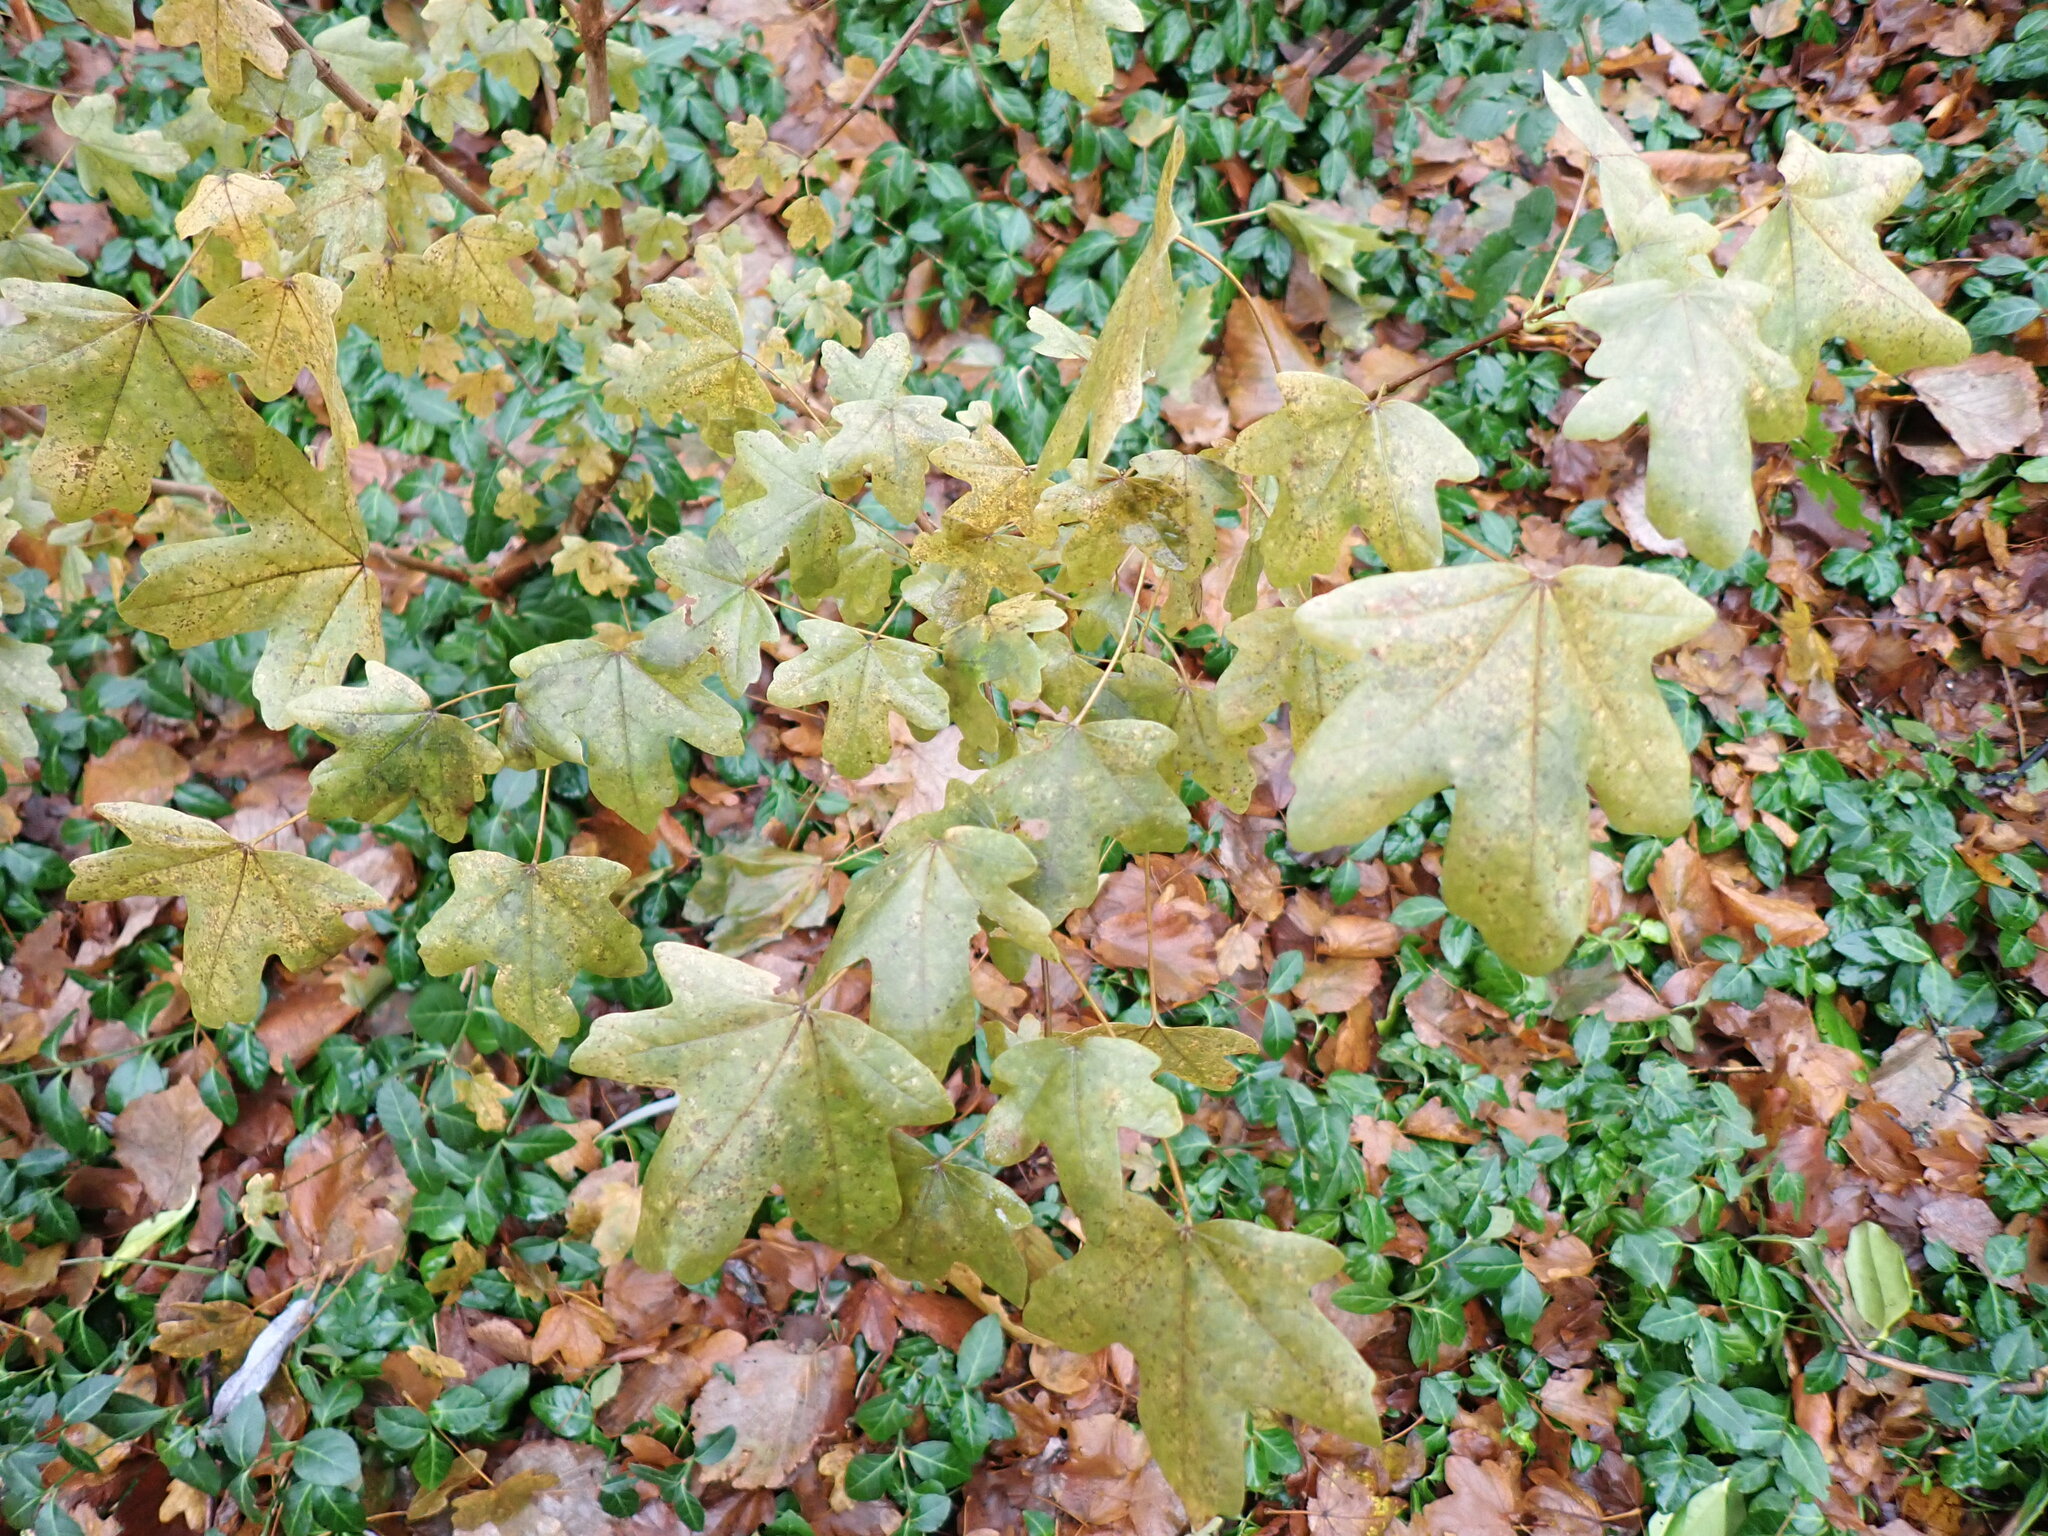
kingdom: Plantae
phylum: Tracheophyta
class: Magnoliopsida
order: Sapindales
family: Sapindaceae
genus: Acer
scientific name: Acer campestre
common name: Field maple
